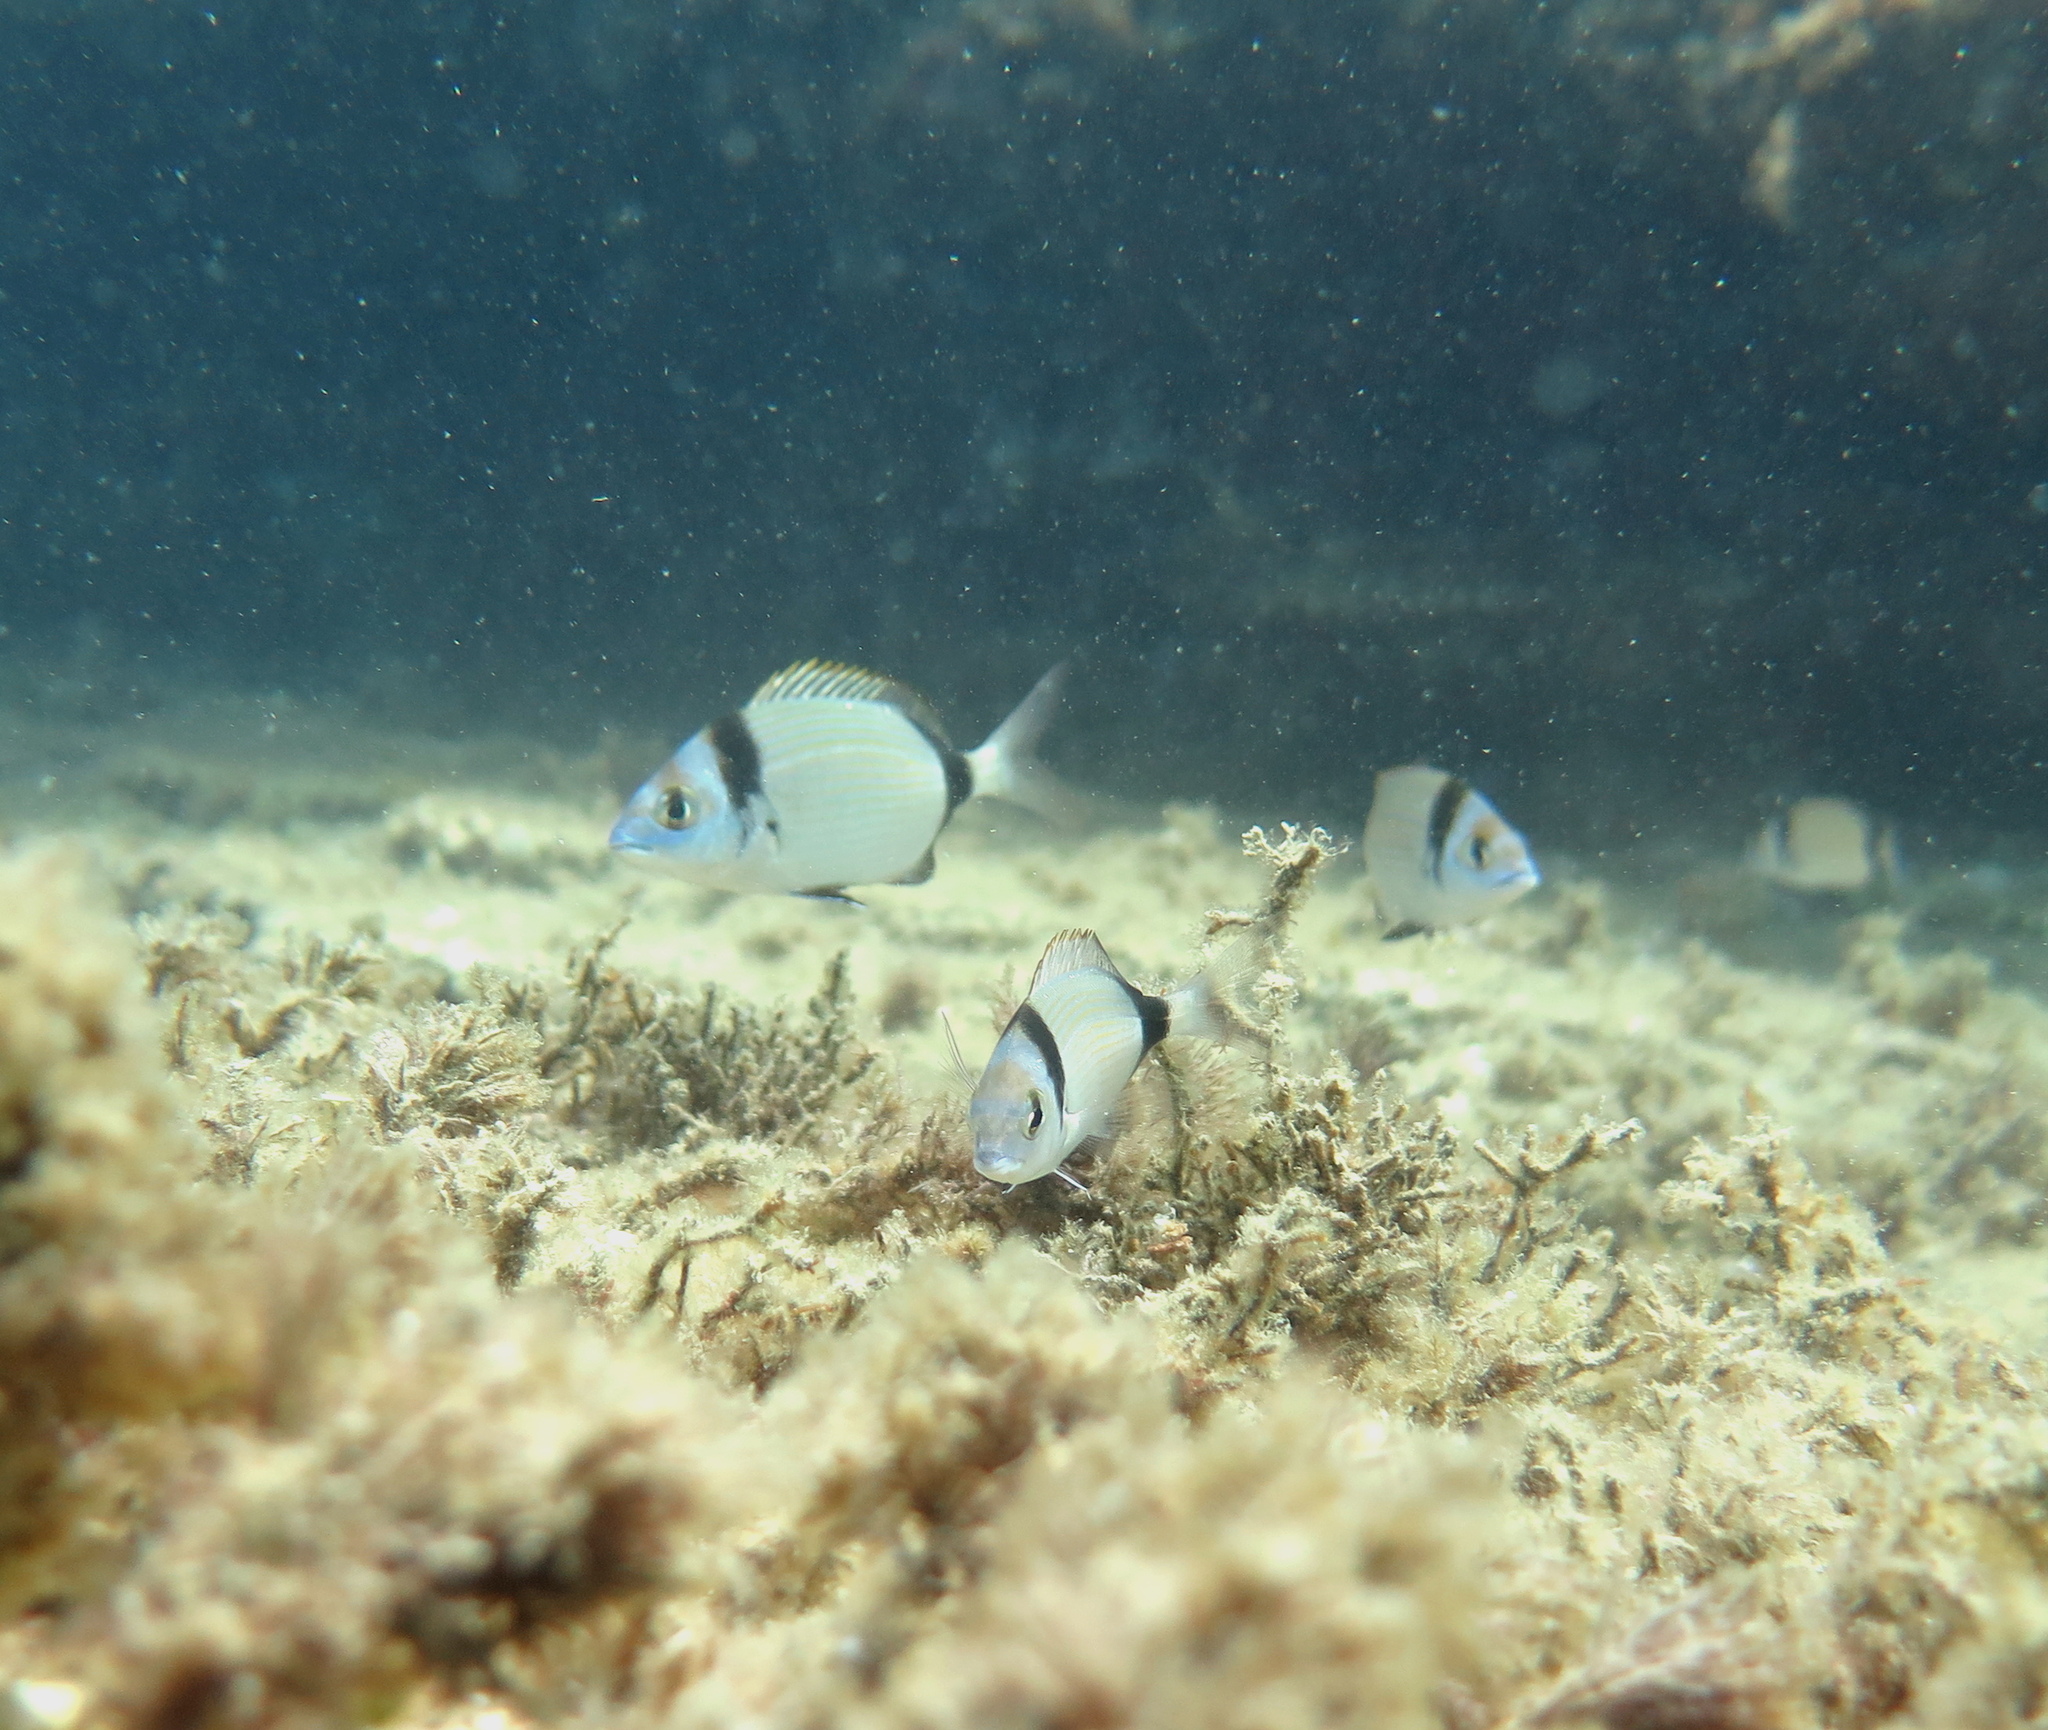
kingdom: Animalia
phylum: Chordata
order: Perciformes
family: Sparidae
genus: Diplodus
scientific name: Diplodus vulgaris
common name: Common two-banded seabream
